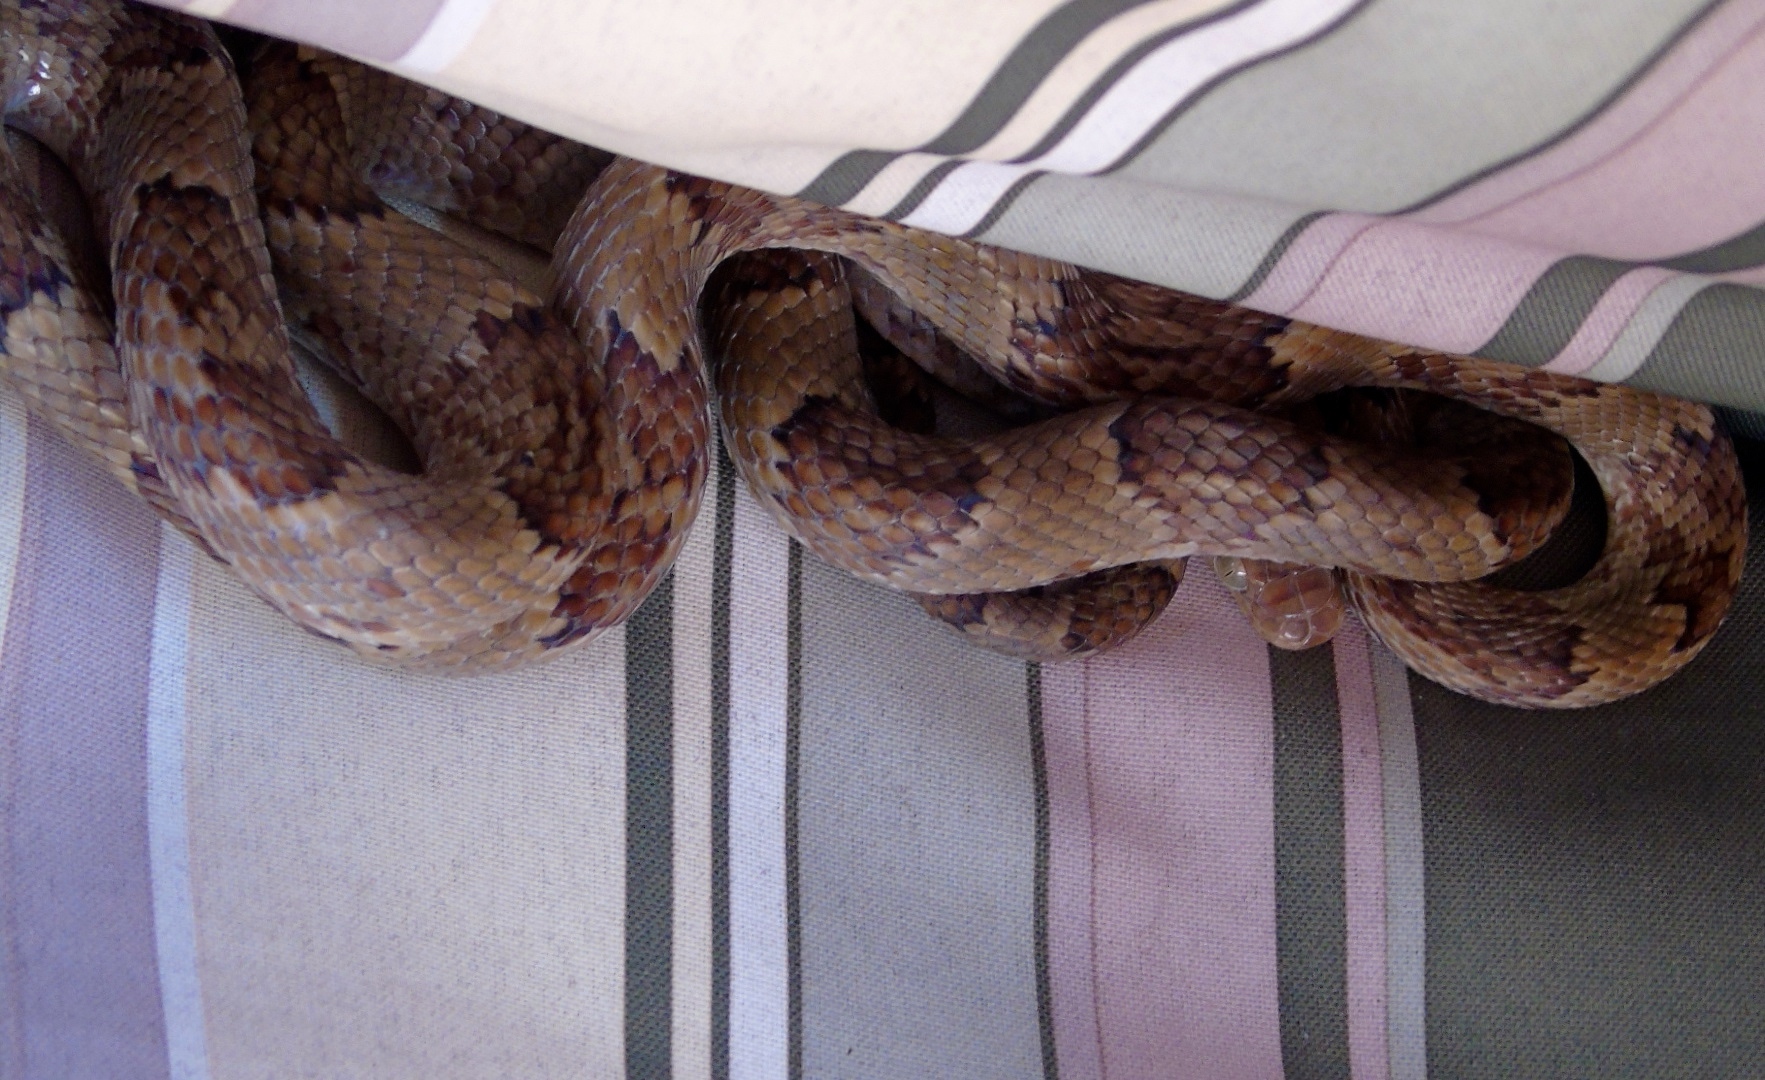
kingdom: Animalia
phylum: Chordata
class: Squamata
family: Colubridae
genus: Trimorphodon
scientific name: Trimorphodon paucimaculatus
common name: Sinaloan lyresnake
